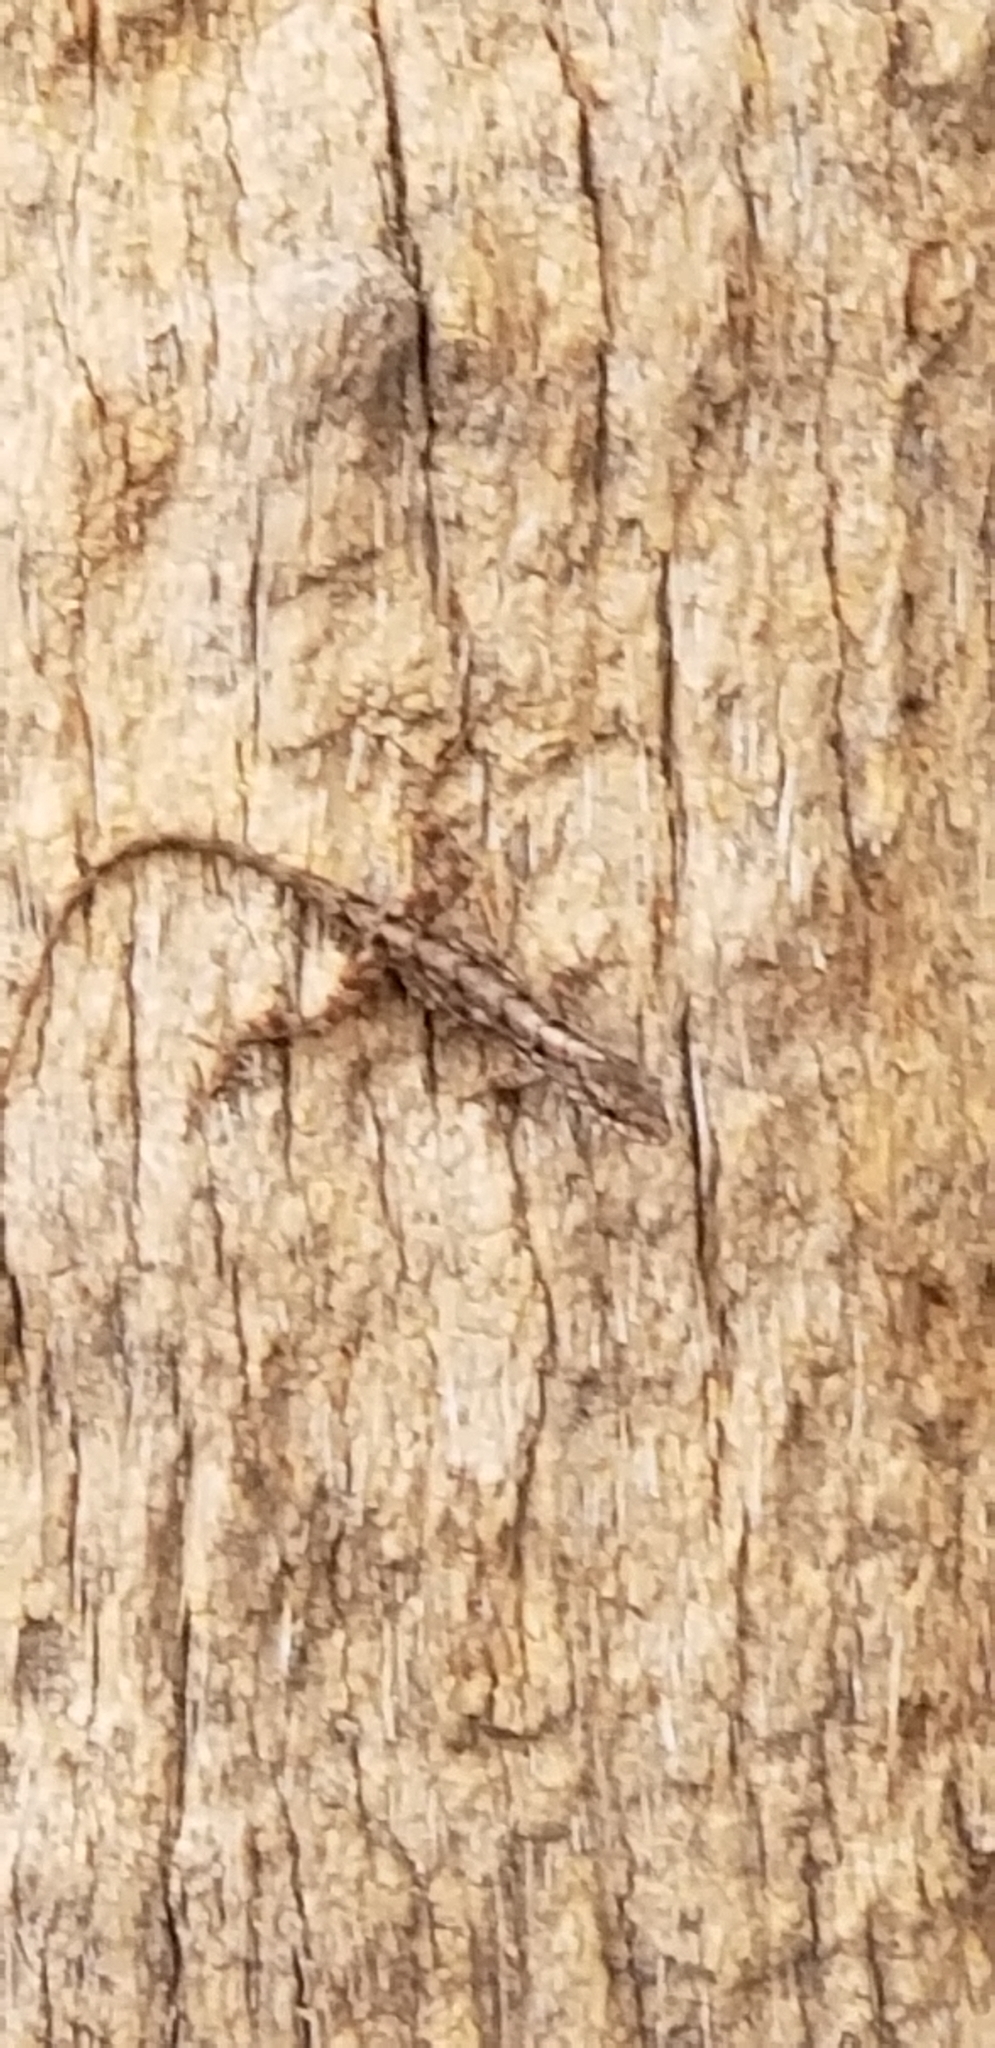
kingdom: Animalia
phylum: Chordata
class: Squamata
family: Dactyloidae
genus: Anolis
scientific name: Anolis sagrei
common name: Brown anole
